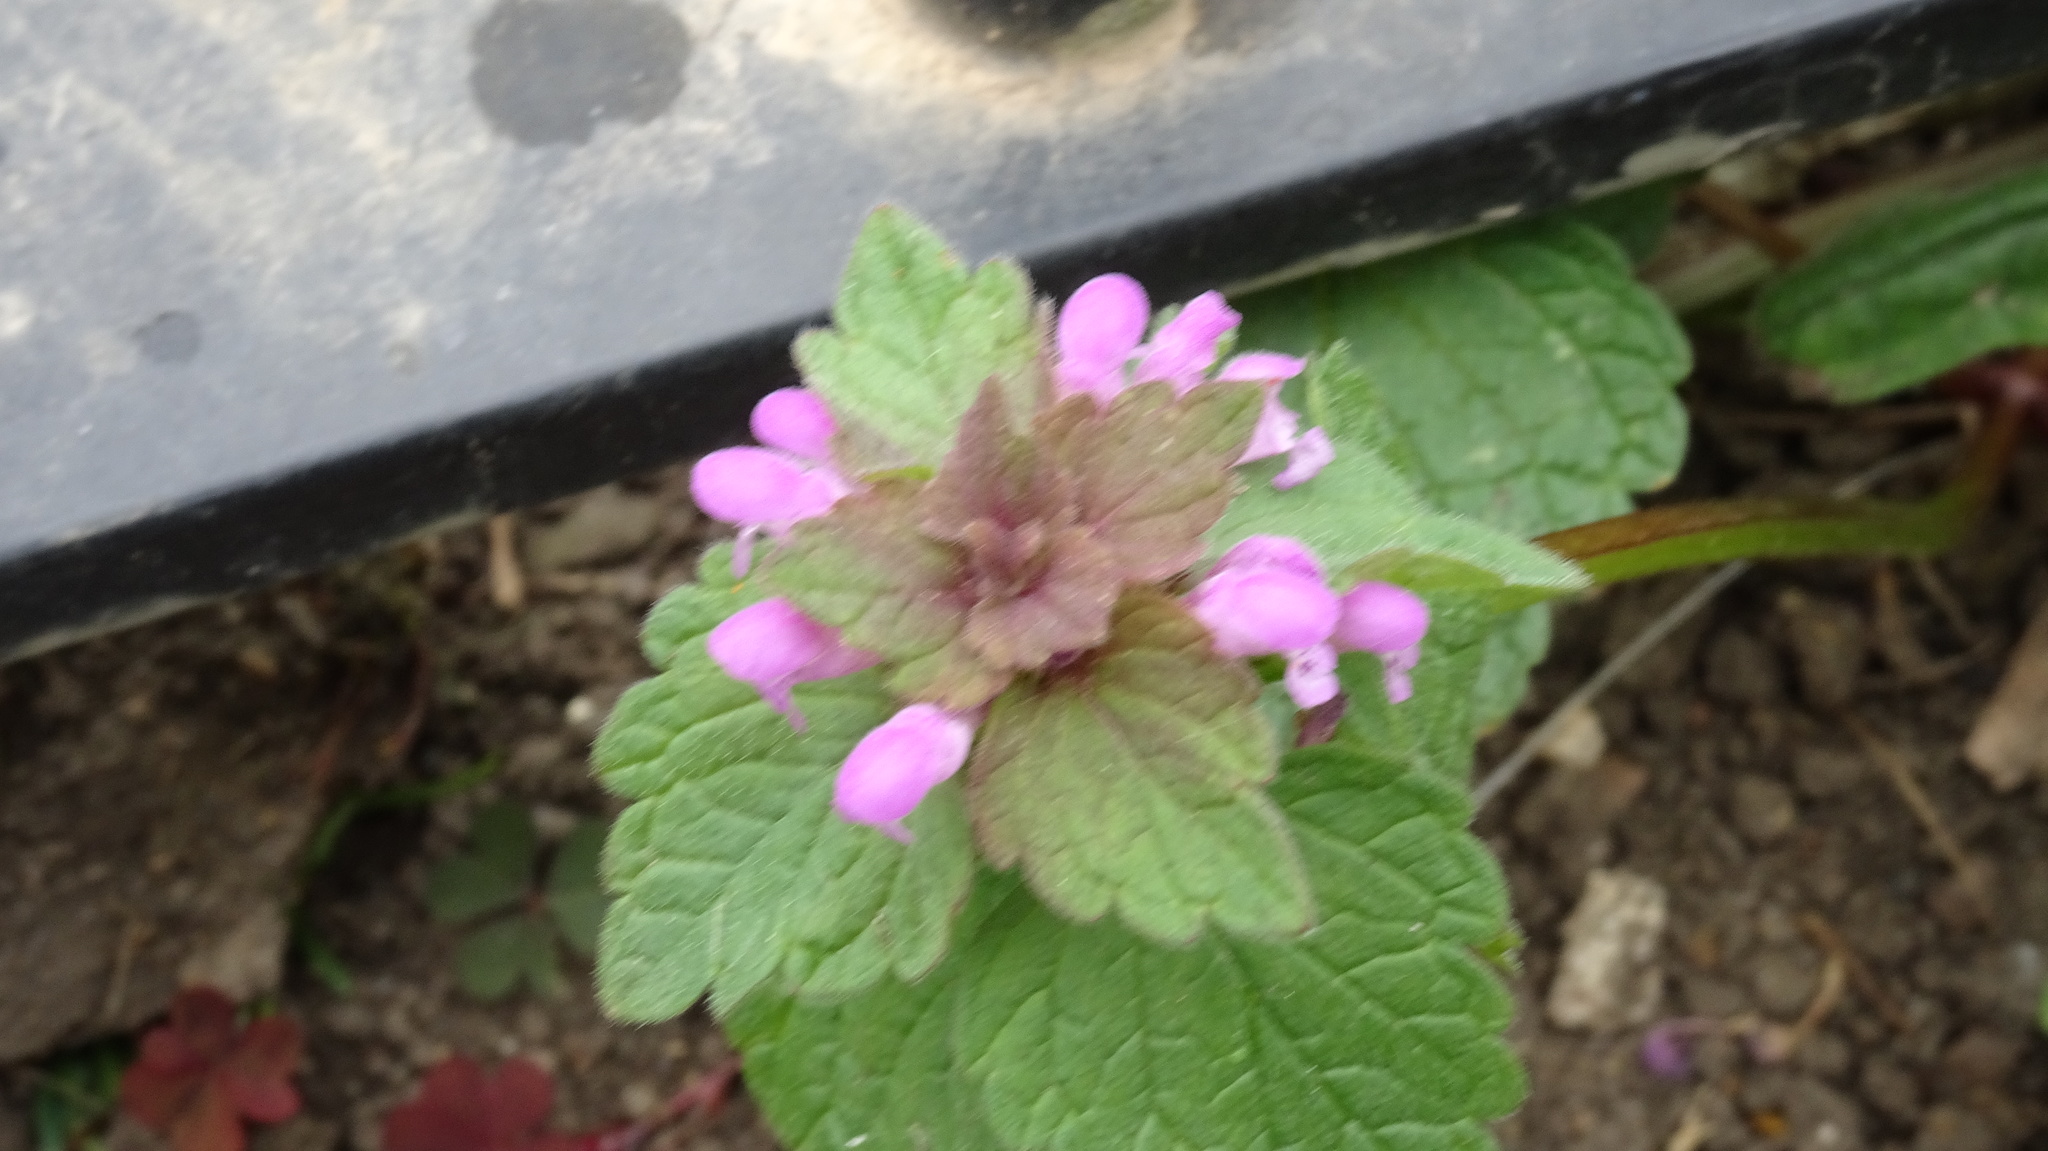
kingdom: Plantae
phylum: Tracheophyta
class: Magnoliopsida
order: Lamiales
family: Lamiaceae
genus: Lamium
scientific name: Lamium purpureum
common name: Red dead-nettle
